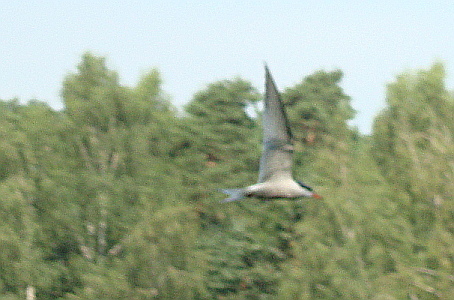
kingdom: Animalia
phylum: Chordata
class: Aves
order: Charadriiformes
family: Laridae
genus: Sterna
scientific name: Sterna hirundo
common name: Common tern
